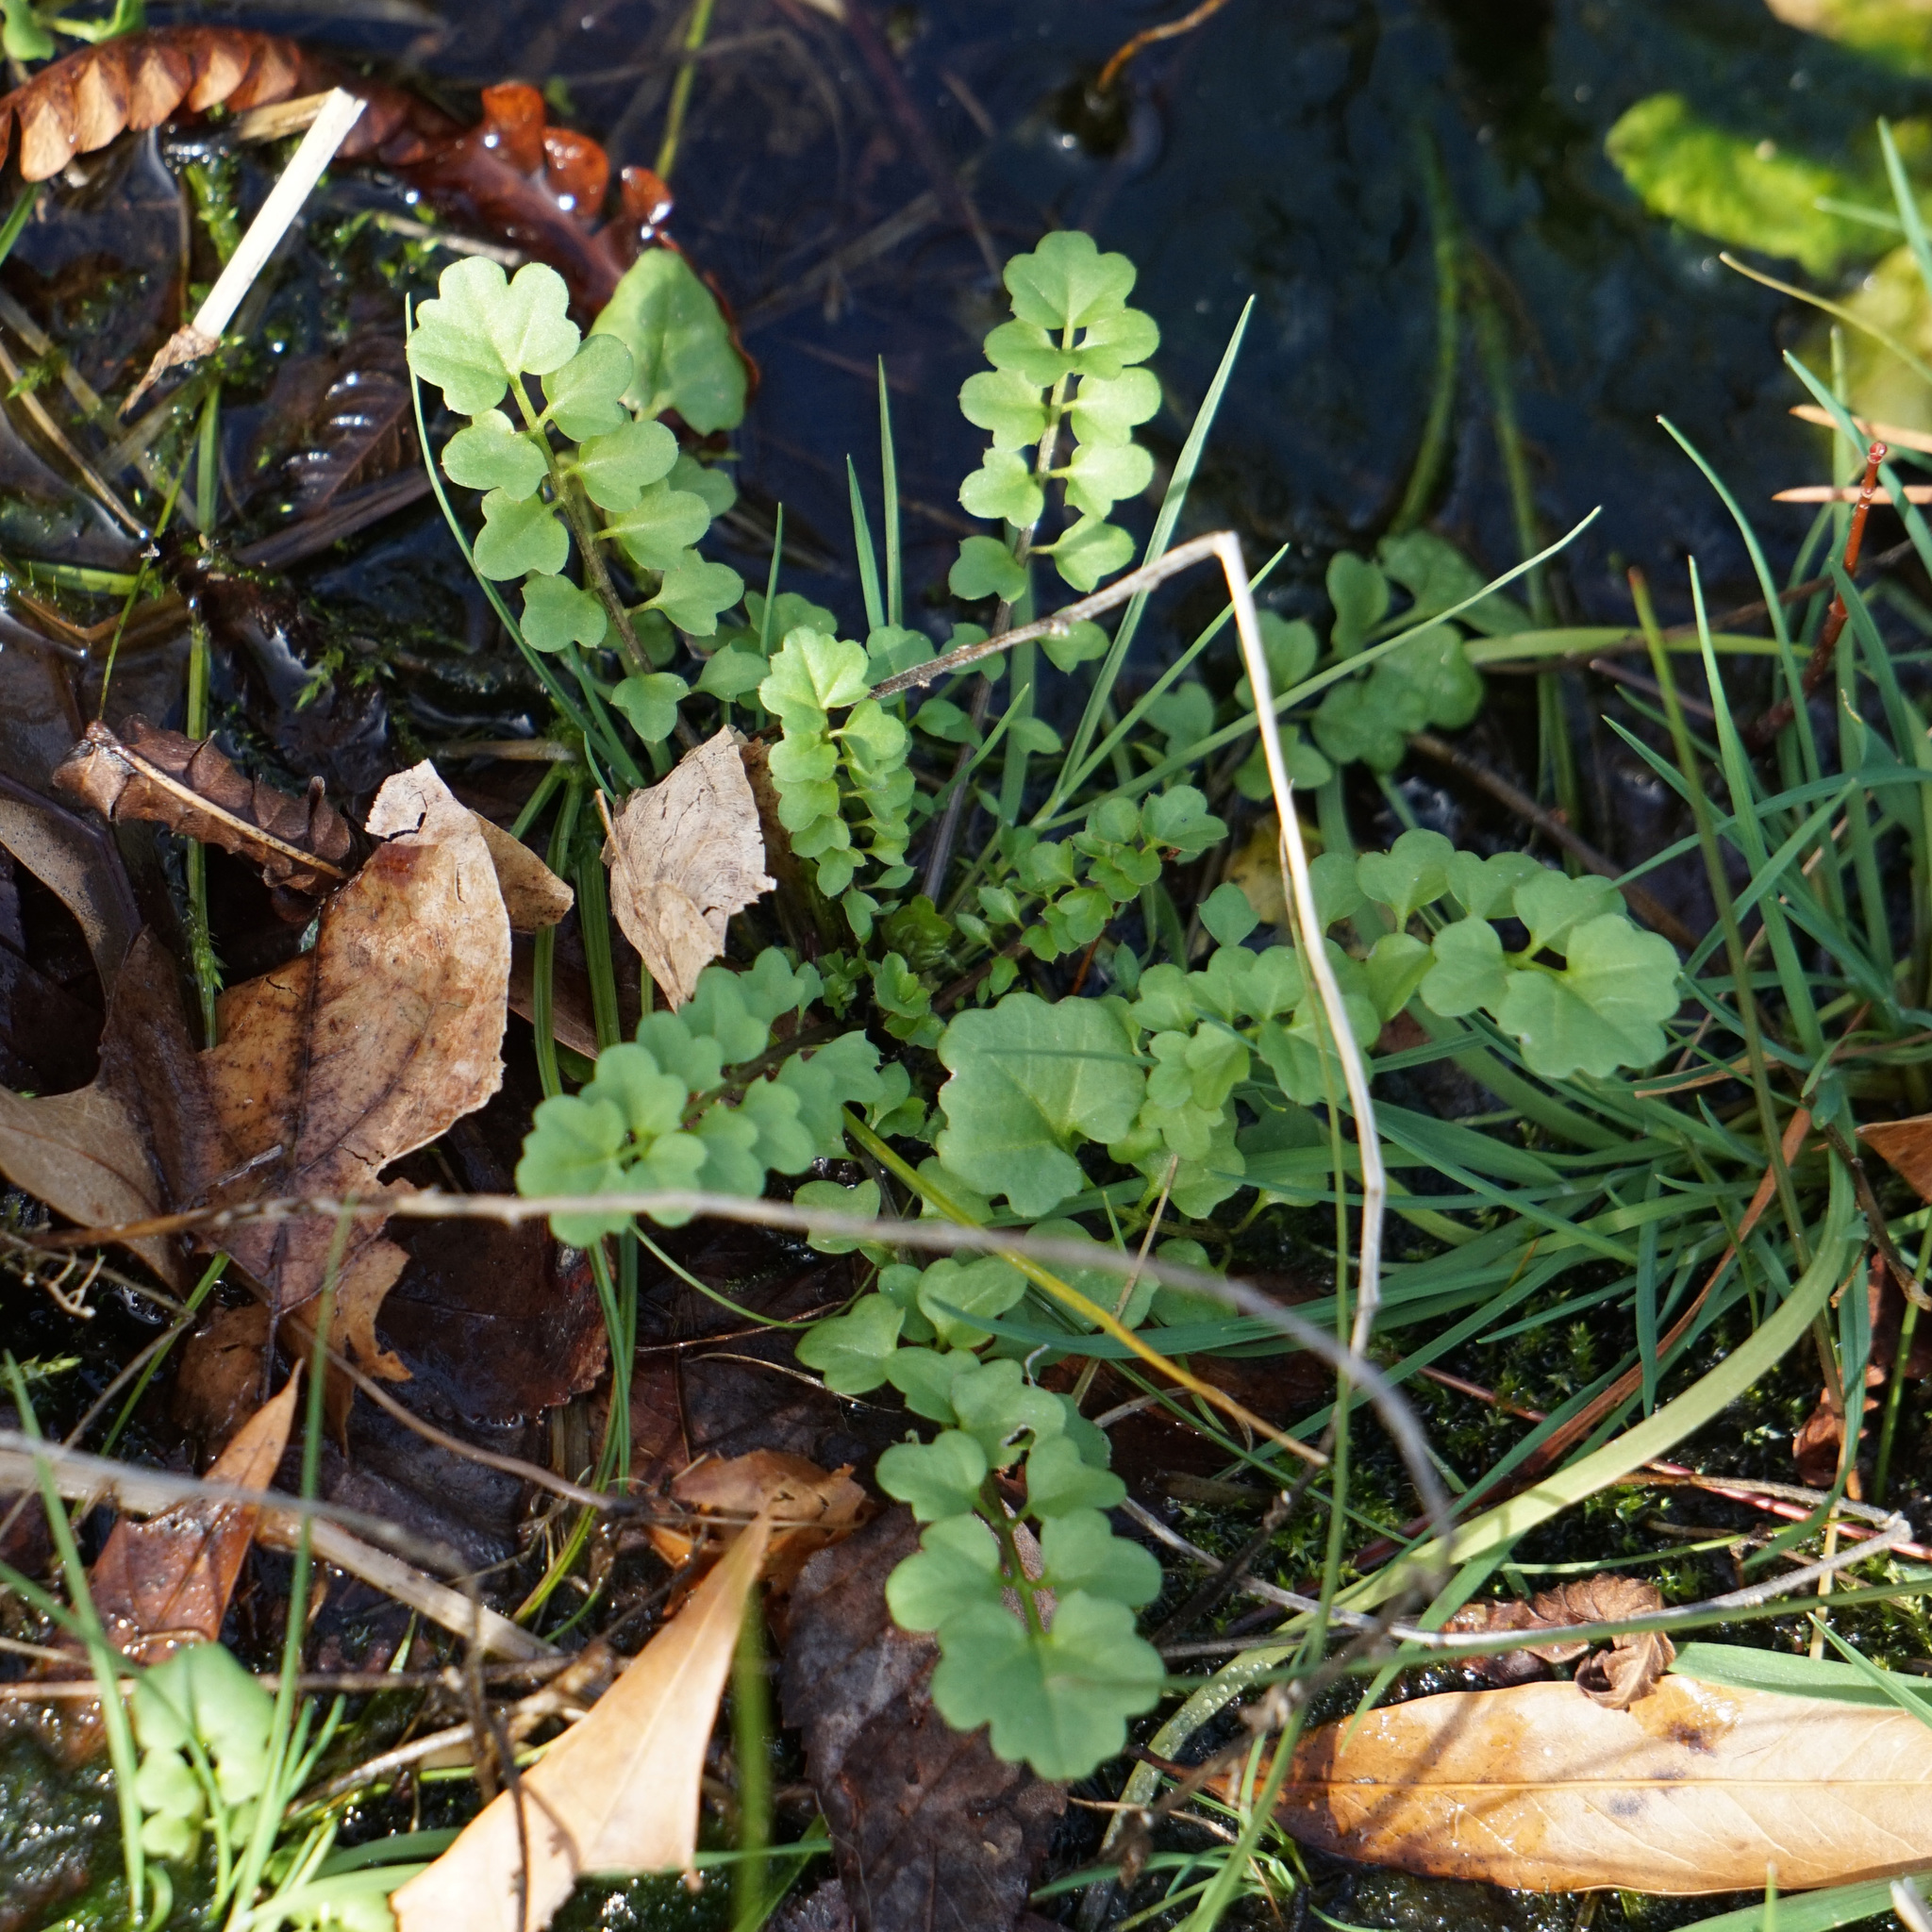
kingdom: Plantae
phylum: Tracheophyta
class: Magnoliopsida
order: Brassicales
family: Brassicaceae
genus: Cardamine
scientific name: Cardamine occulta
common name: Asian wavy bittercress
